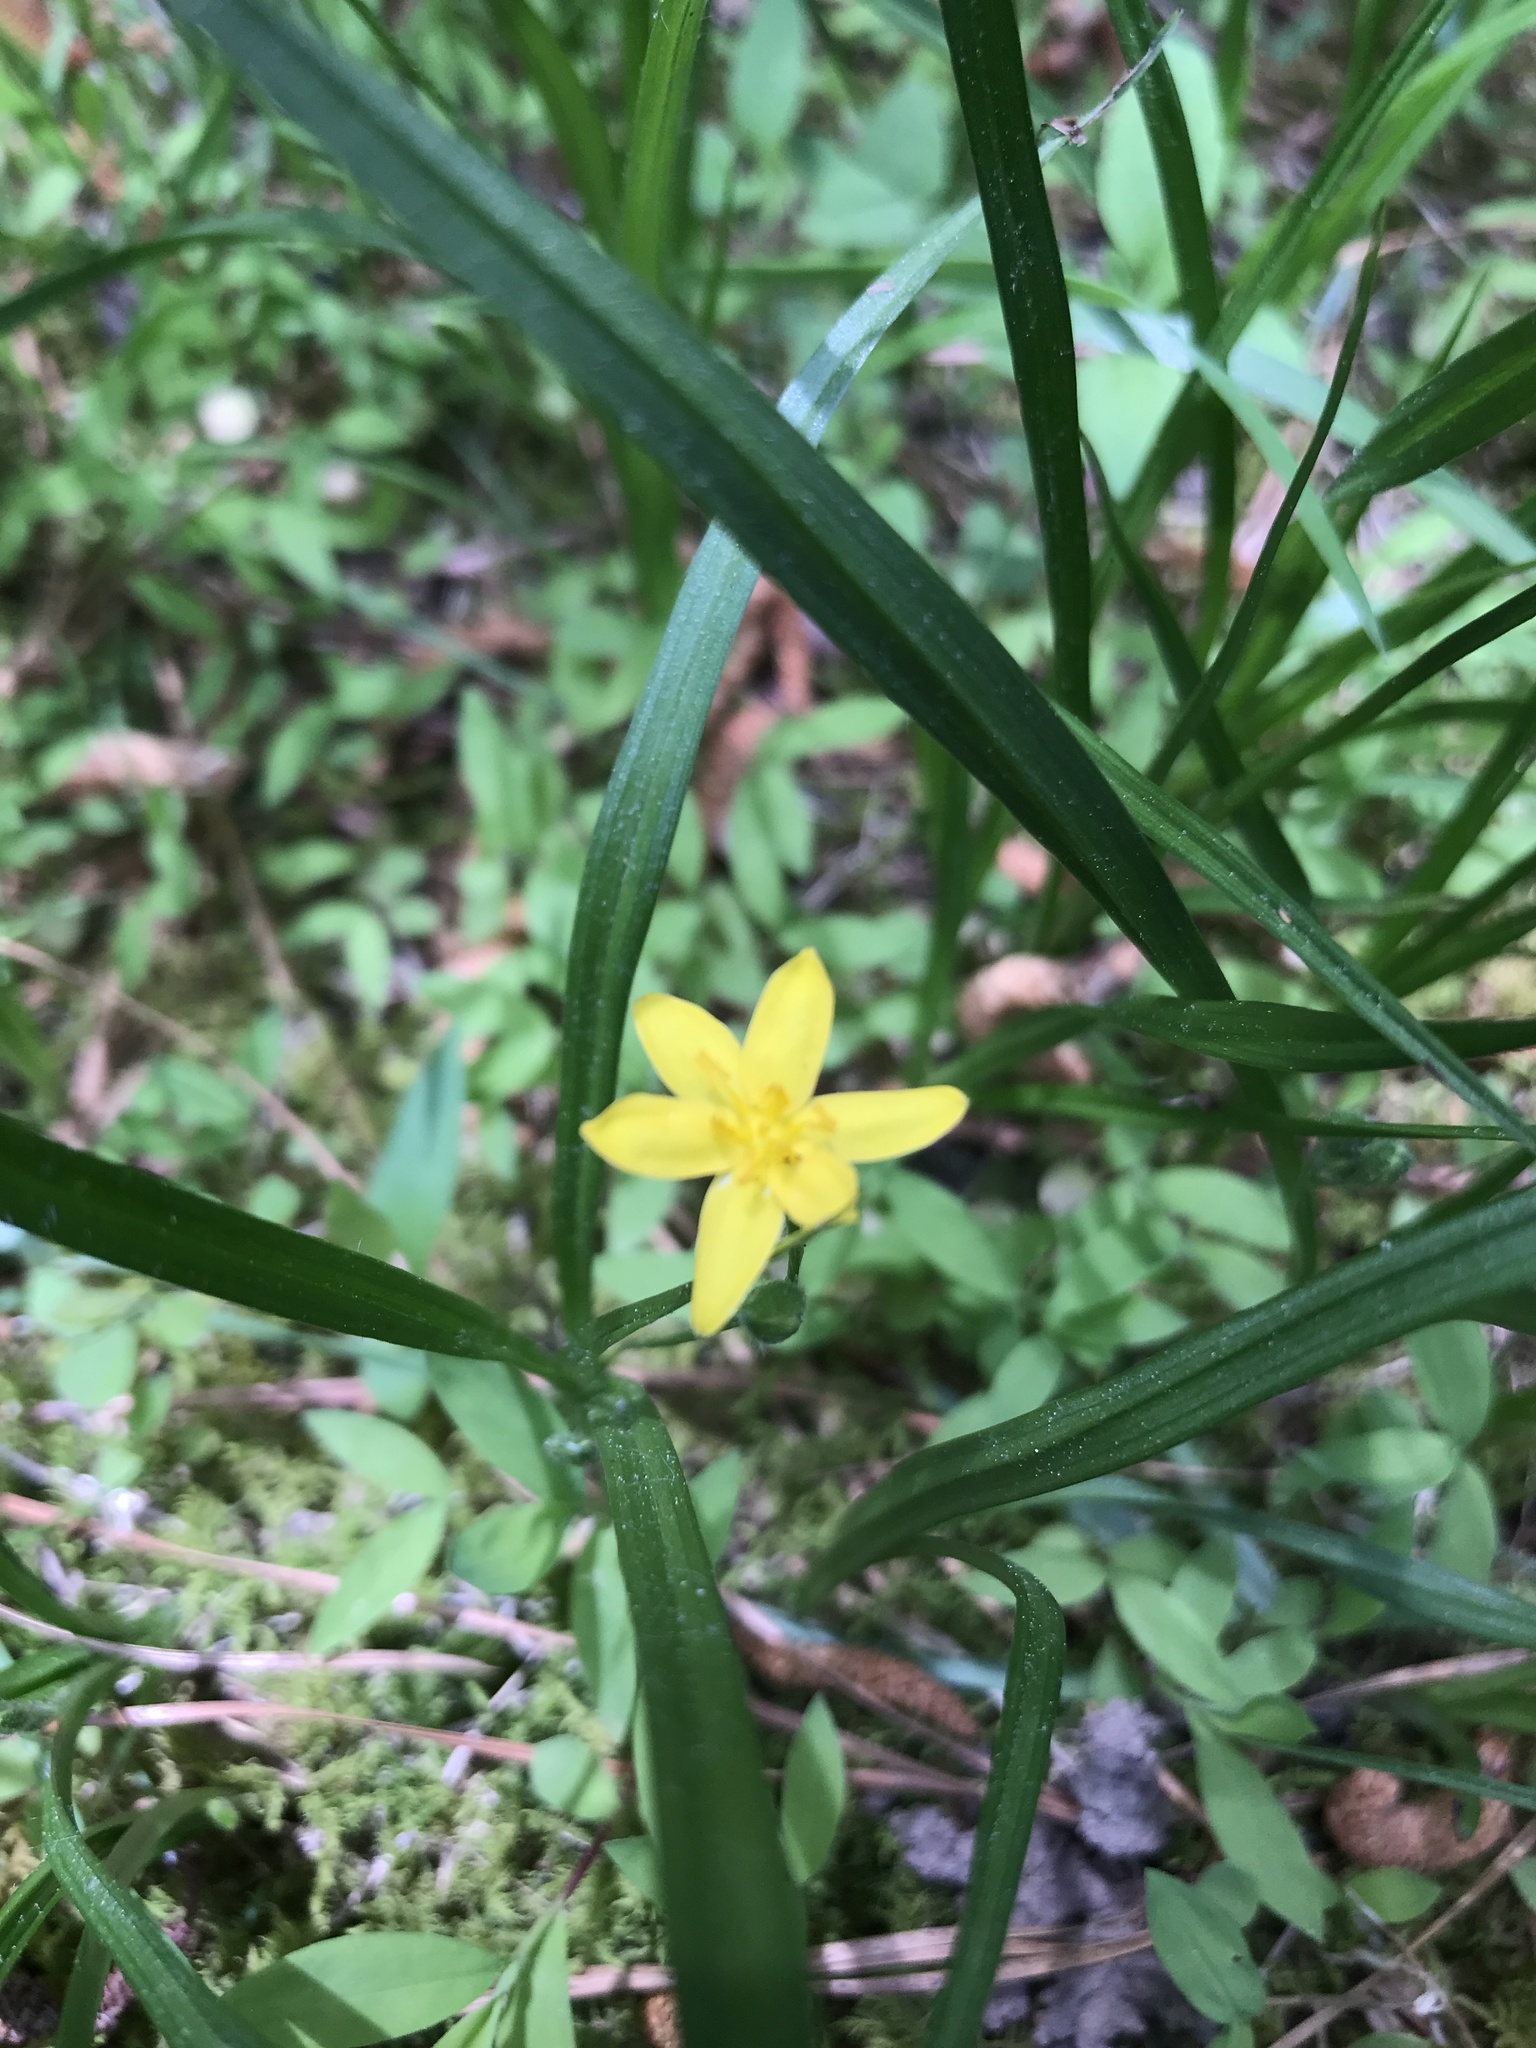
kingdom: Plantae
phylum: Tracheophyta
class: Liliopsida
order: Asparagales
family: Hypoxidaceae
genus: Hypoxis
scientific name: Hypoxis hirsuta
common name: Common goldstar
